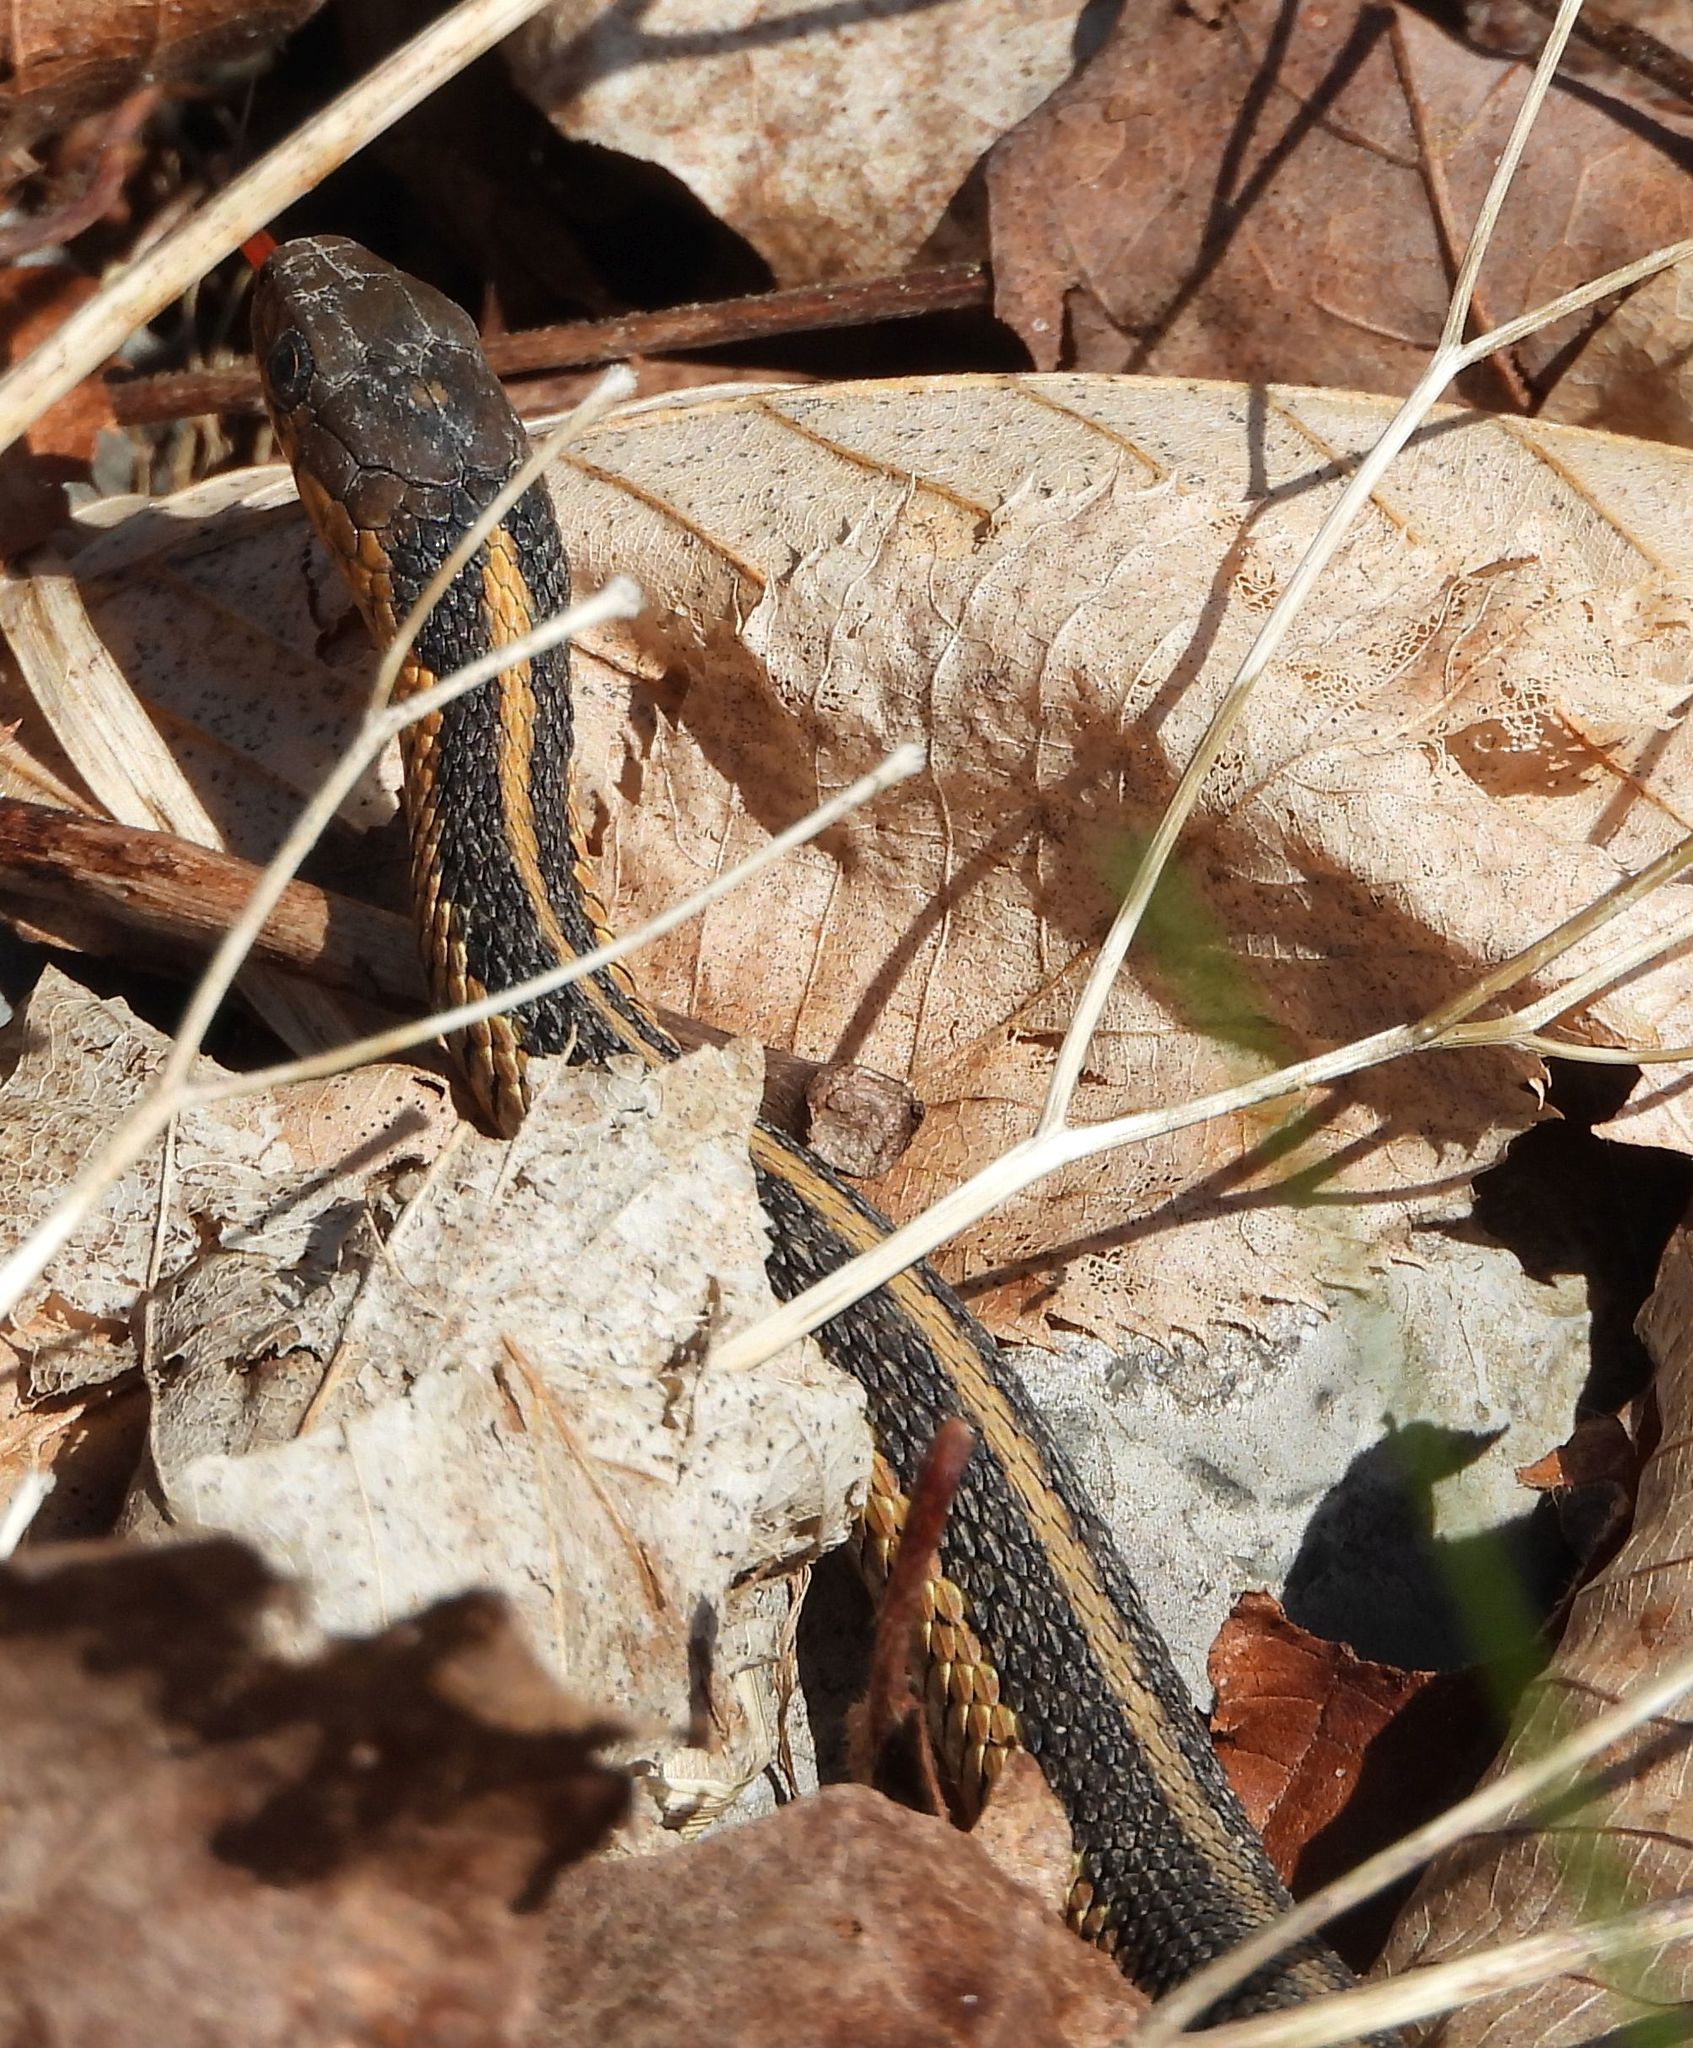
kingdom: Animalia
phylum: Chordata
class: Squamata
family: Colubridae
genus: Thamnophis
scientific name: Thamnophis sirtalis
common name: Common garter snake
